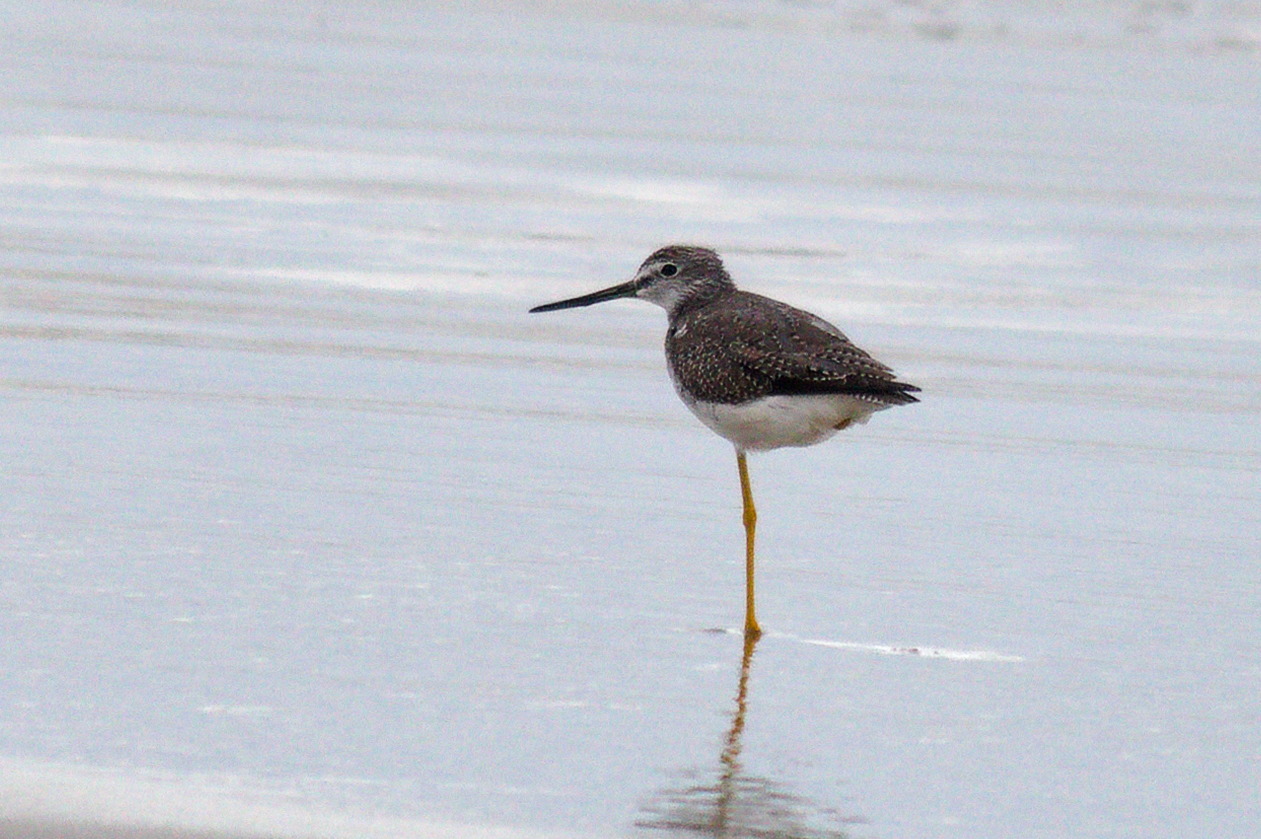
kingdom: Animalia
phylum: Chordata
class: Aves
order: Charadriiformes
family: Scolopacidae
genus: Tringa
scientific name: Tringa melanoleuca
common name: Greater yellowlegs
